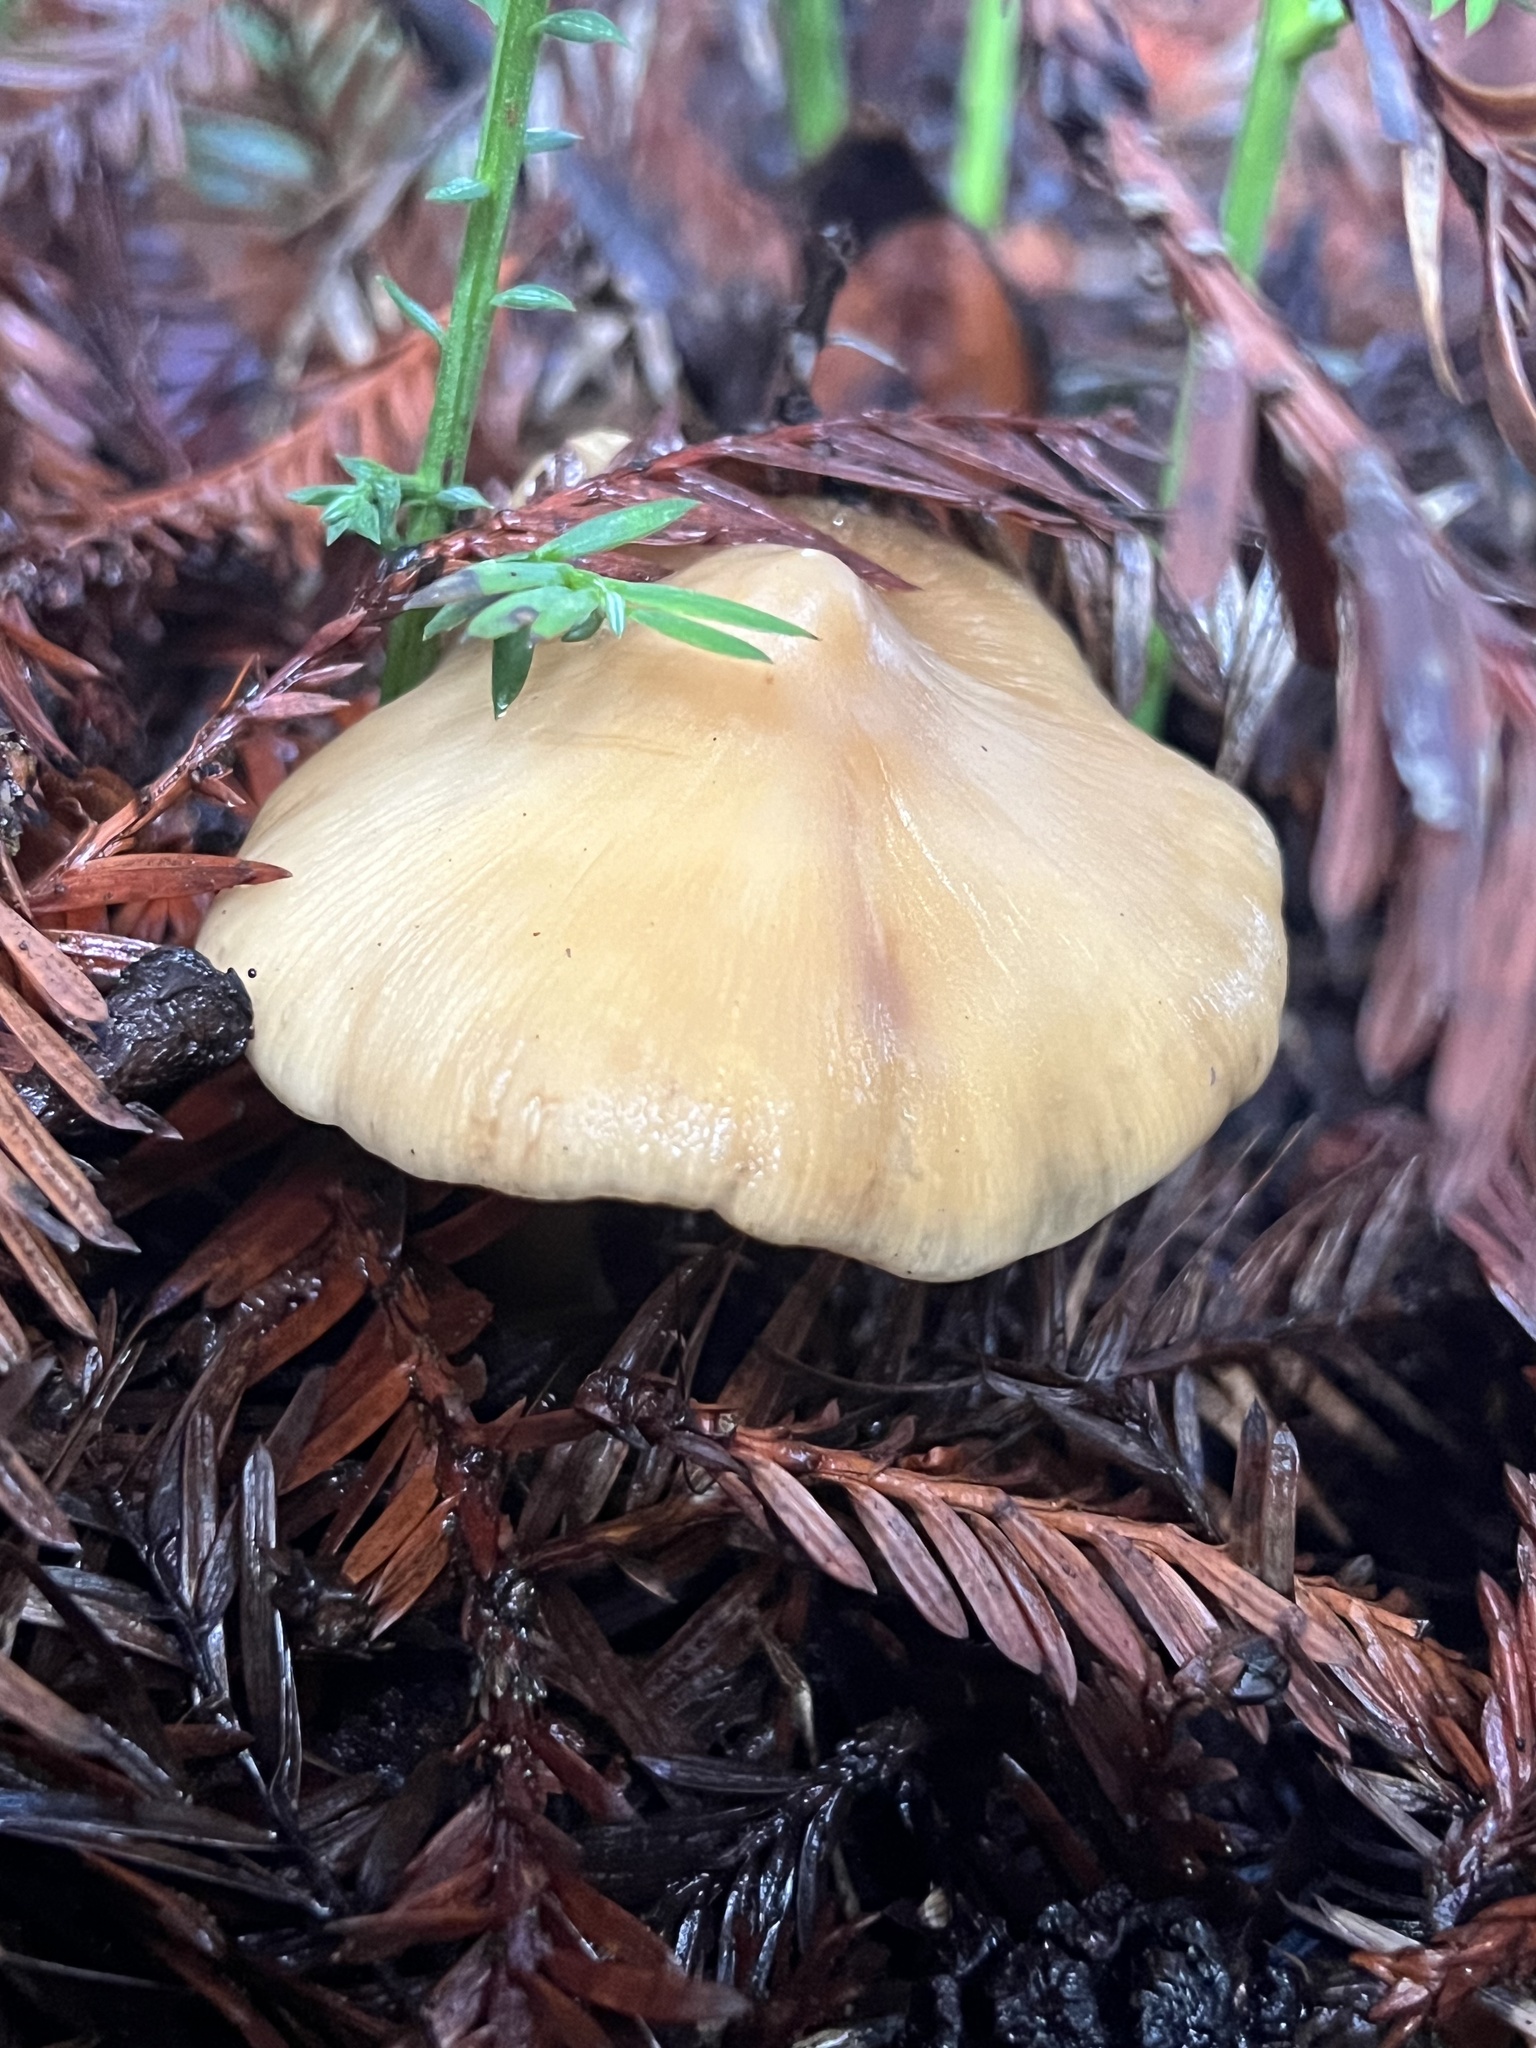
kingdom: Fungi
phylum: Basidiomycota
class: Agaricomycetes
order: Agaricales
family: Tricholomataceae
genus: Caulorhiza
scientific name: Caulorhiza umbonata
